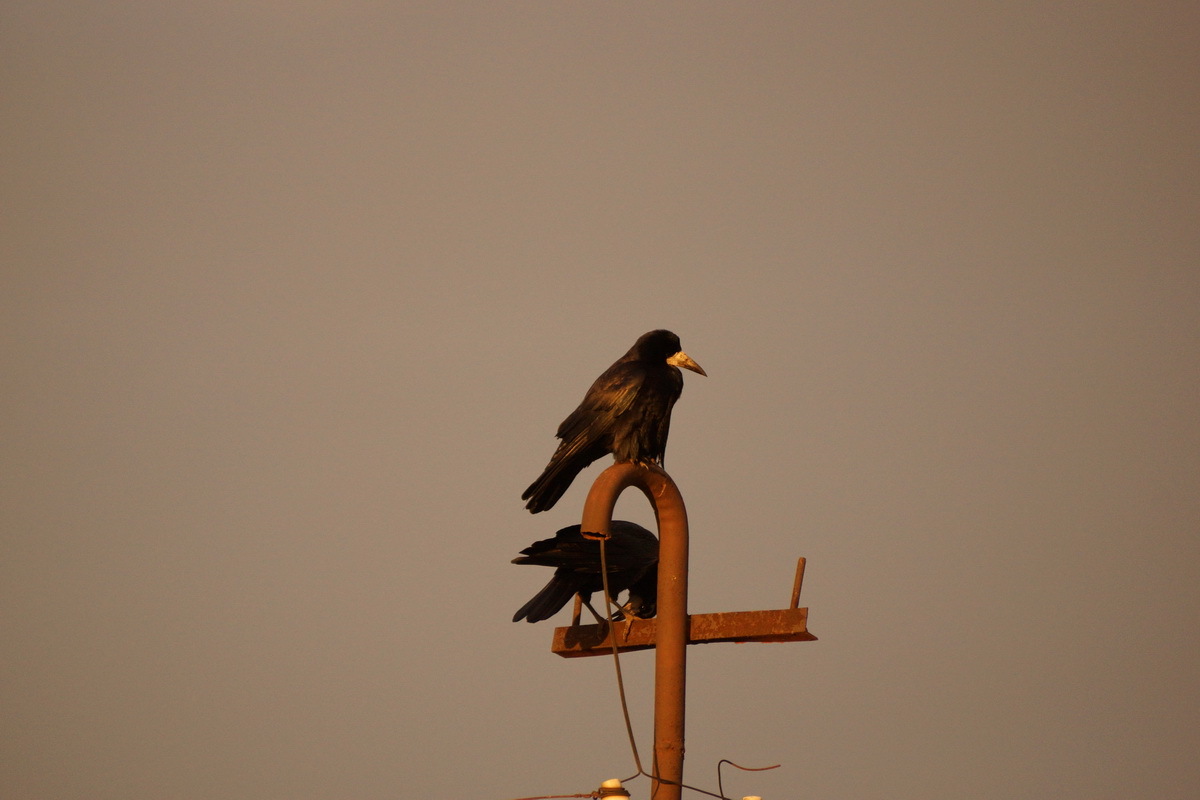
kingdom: Animalia
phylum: Chordata
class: Aves
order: Passeriformes
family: Corvidae
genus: Corvus
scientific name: Corvus frugilegus
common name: Rook
